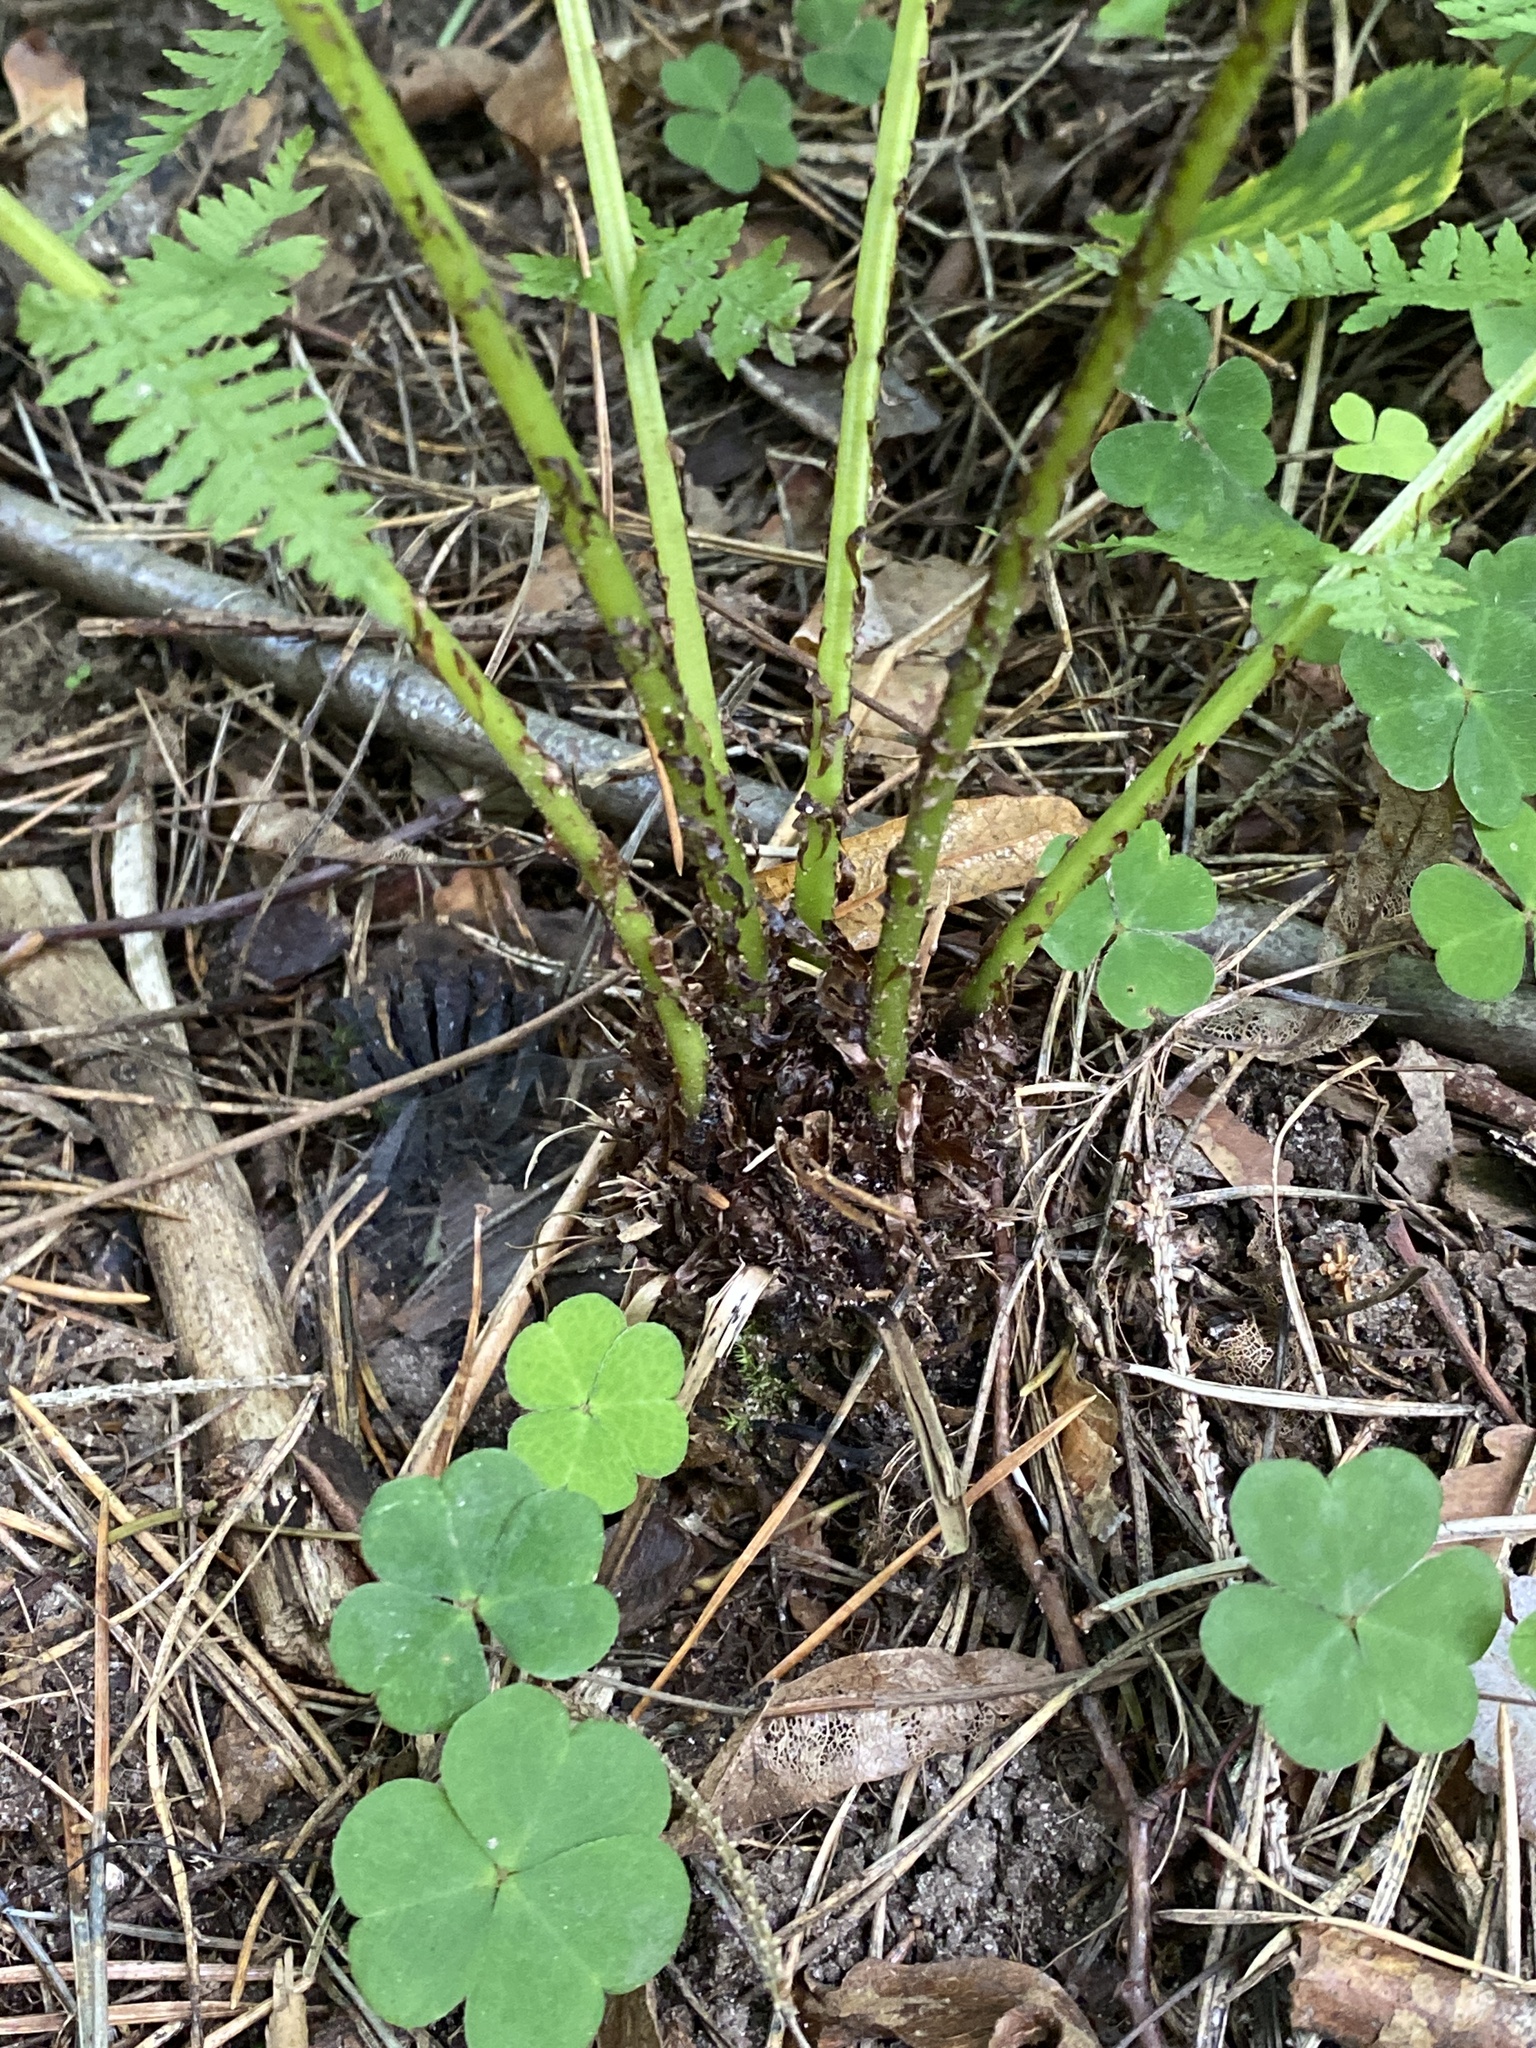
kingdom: Plantae
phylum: Tracheophyta
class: Polypodiopsida
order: Polypodiales
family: Athyriaceae
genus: Athyrium
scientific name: Athyrium filix-femina
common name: Lady fern
